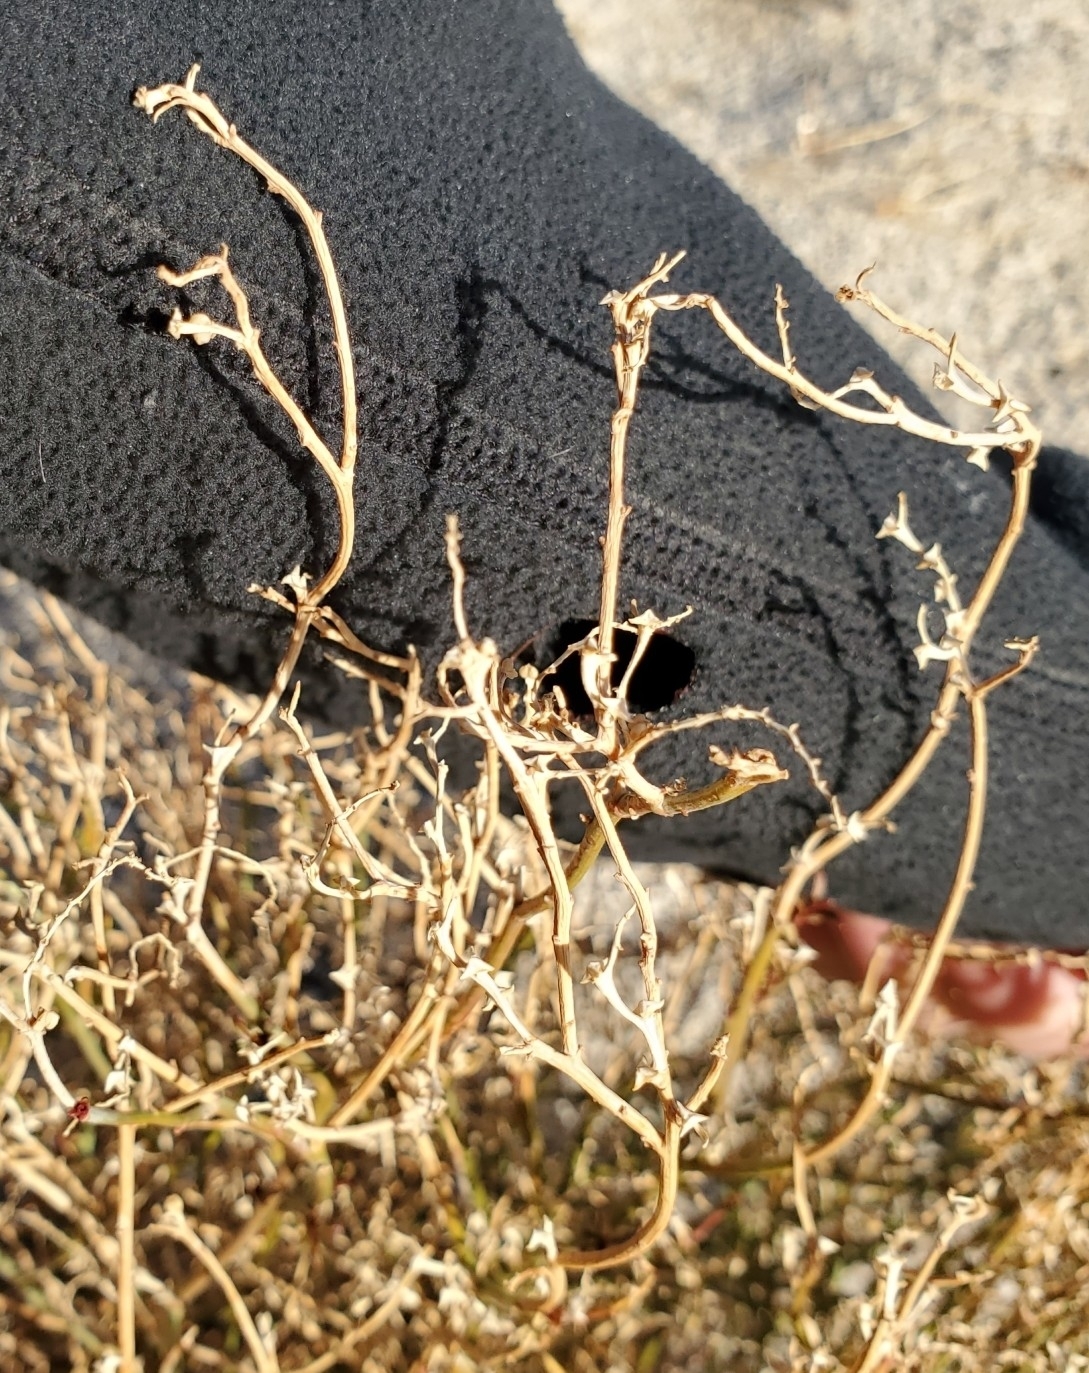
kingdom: Plantae
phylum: Tracheophyta
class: Magnoliopsida
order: Malpighiales
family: Euphorbiaceae
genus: Stillingia
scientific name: Stillingia linearifolia
